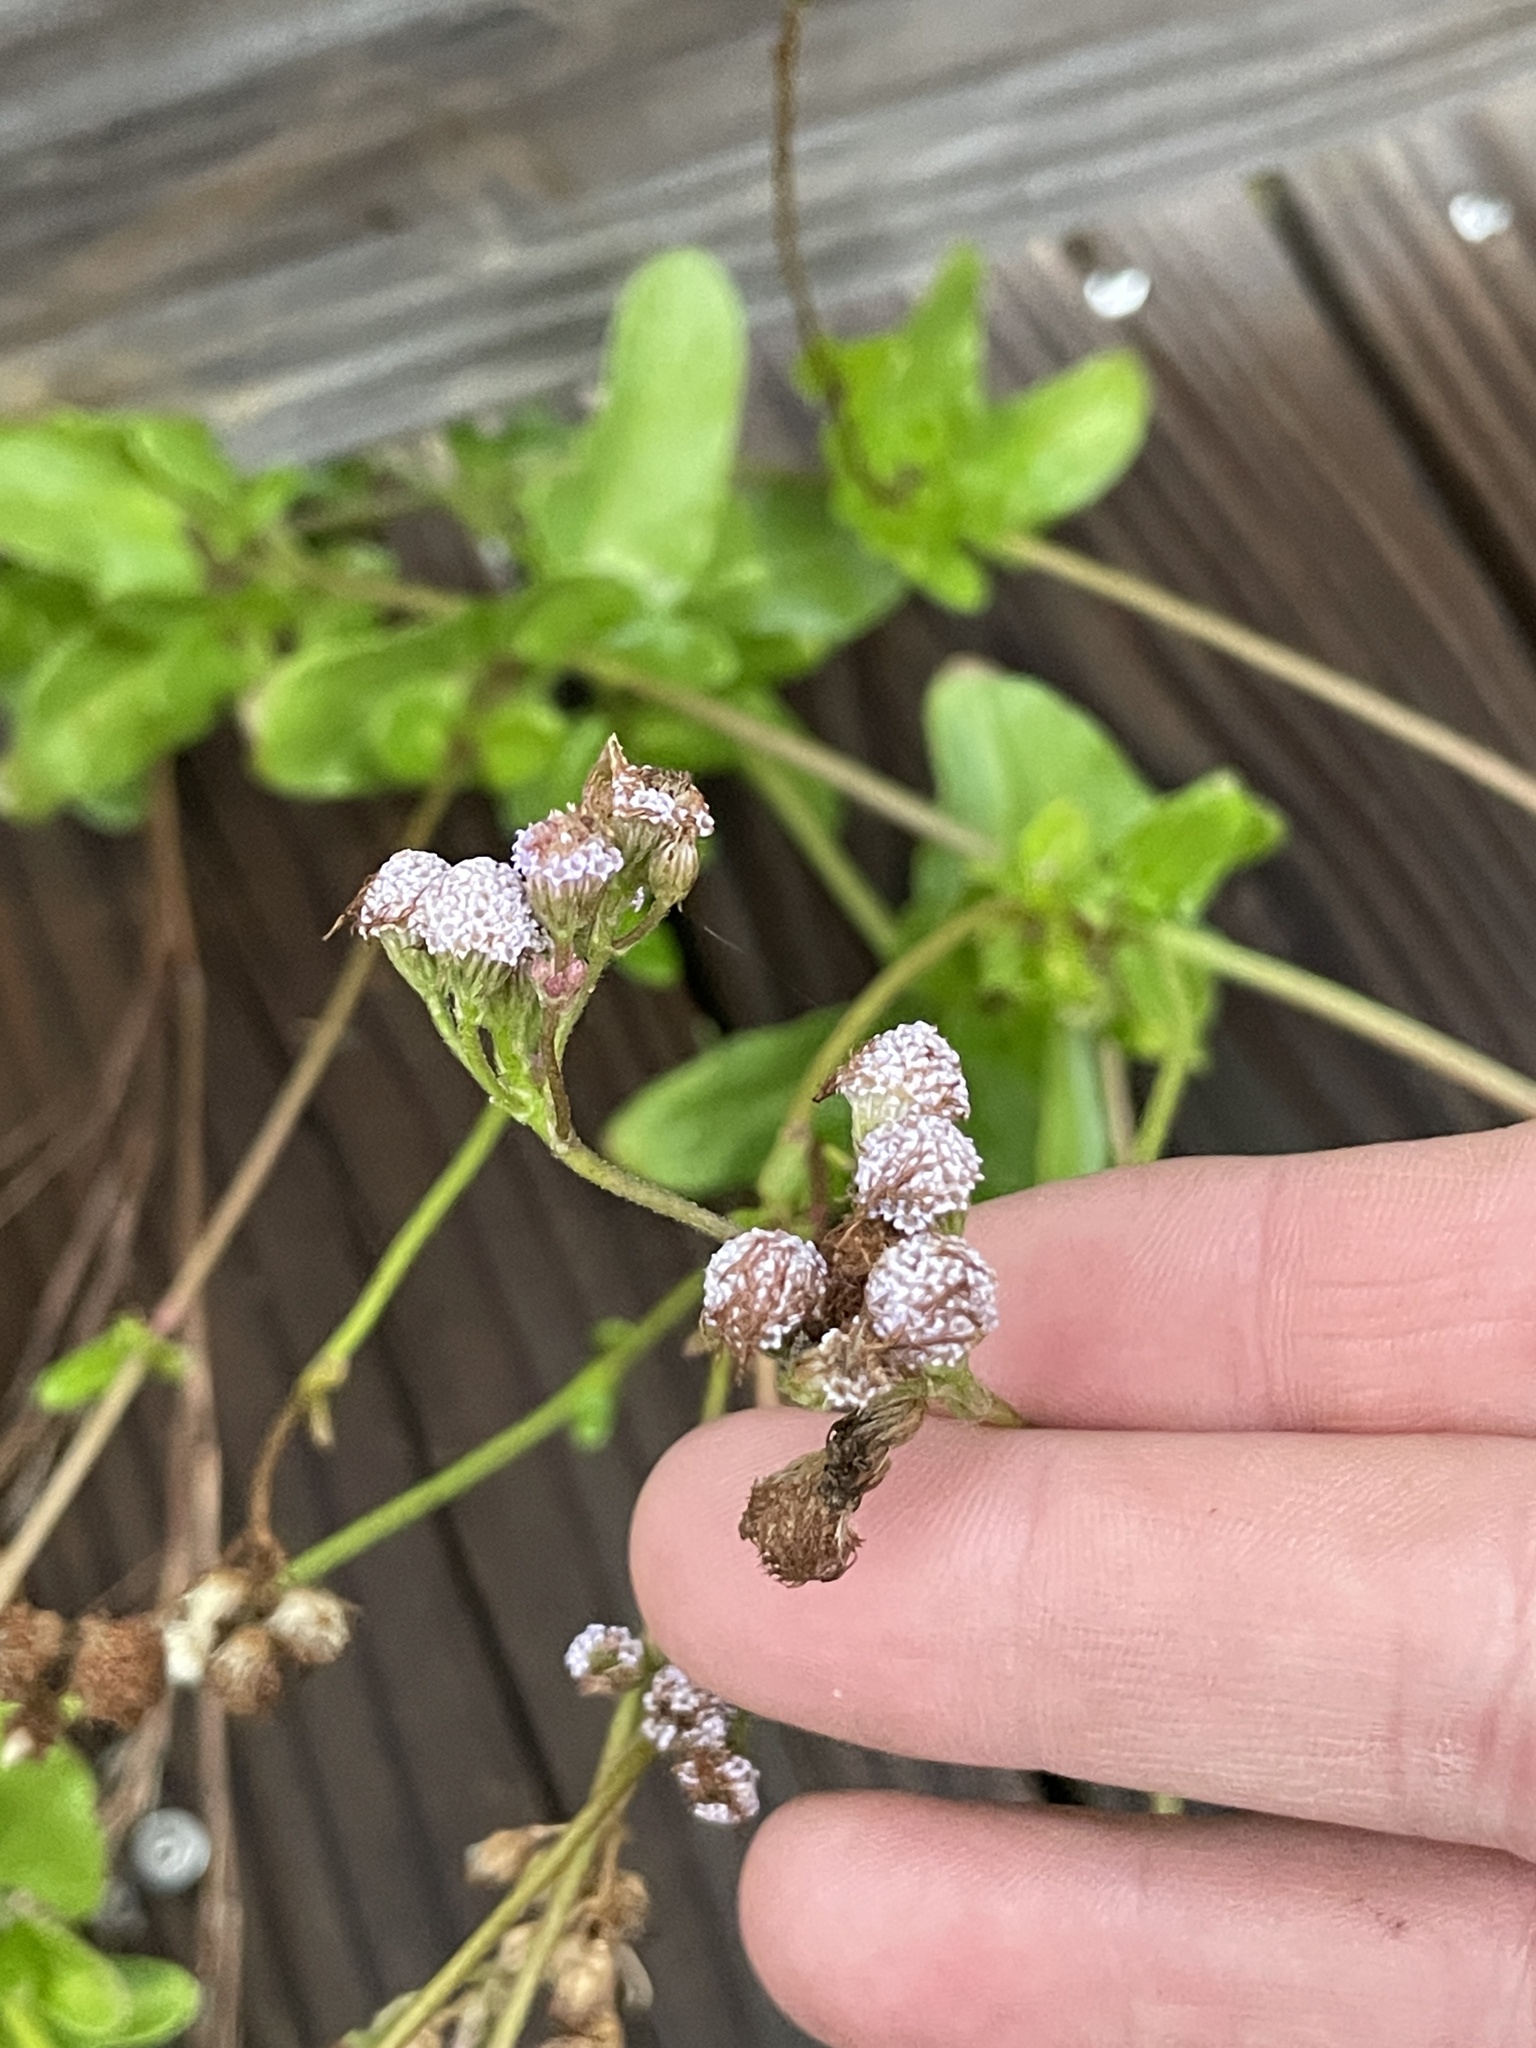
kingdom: Plantae
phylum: Tracheophyta
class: Magnoliopsida
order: Asterales
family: Asteraceae
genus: Conoclinium
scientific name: Conoclinium betonicifolium
